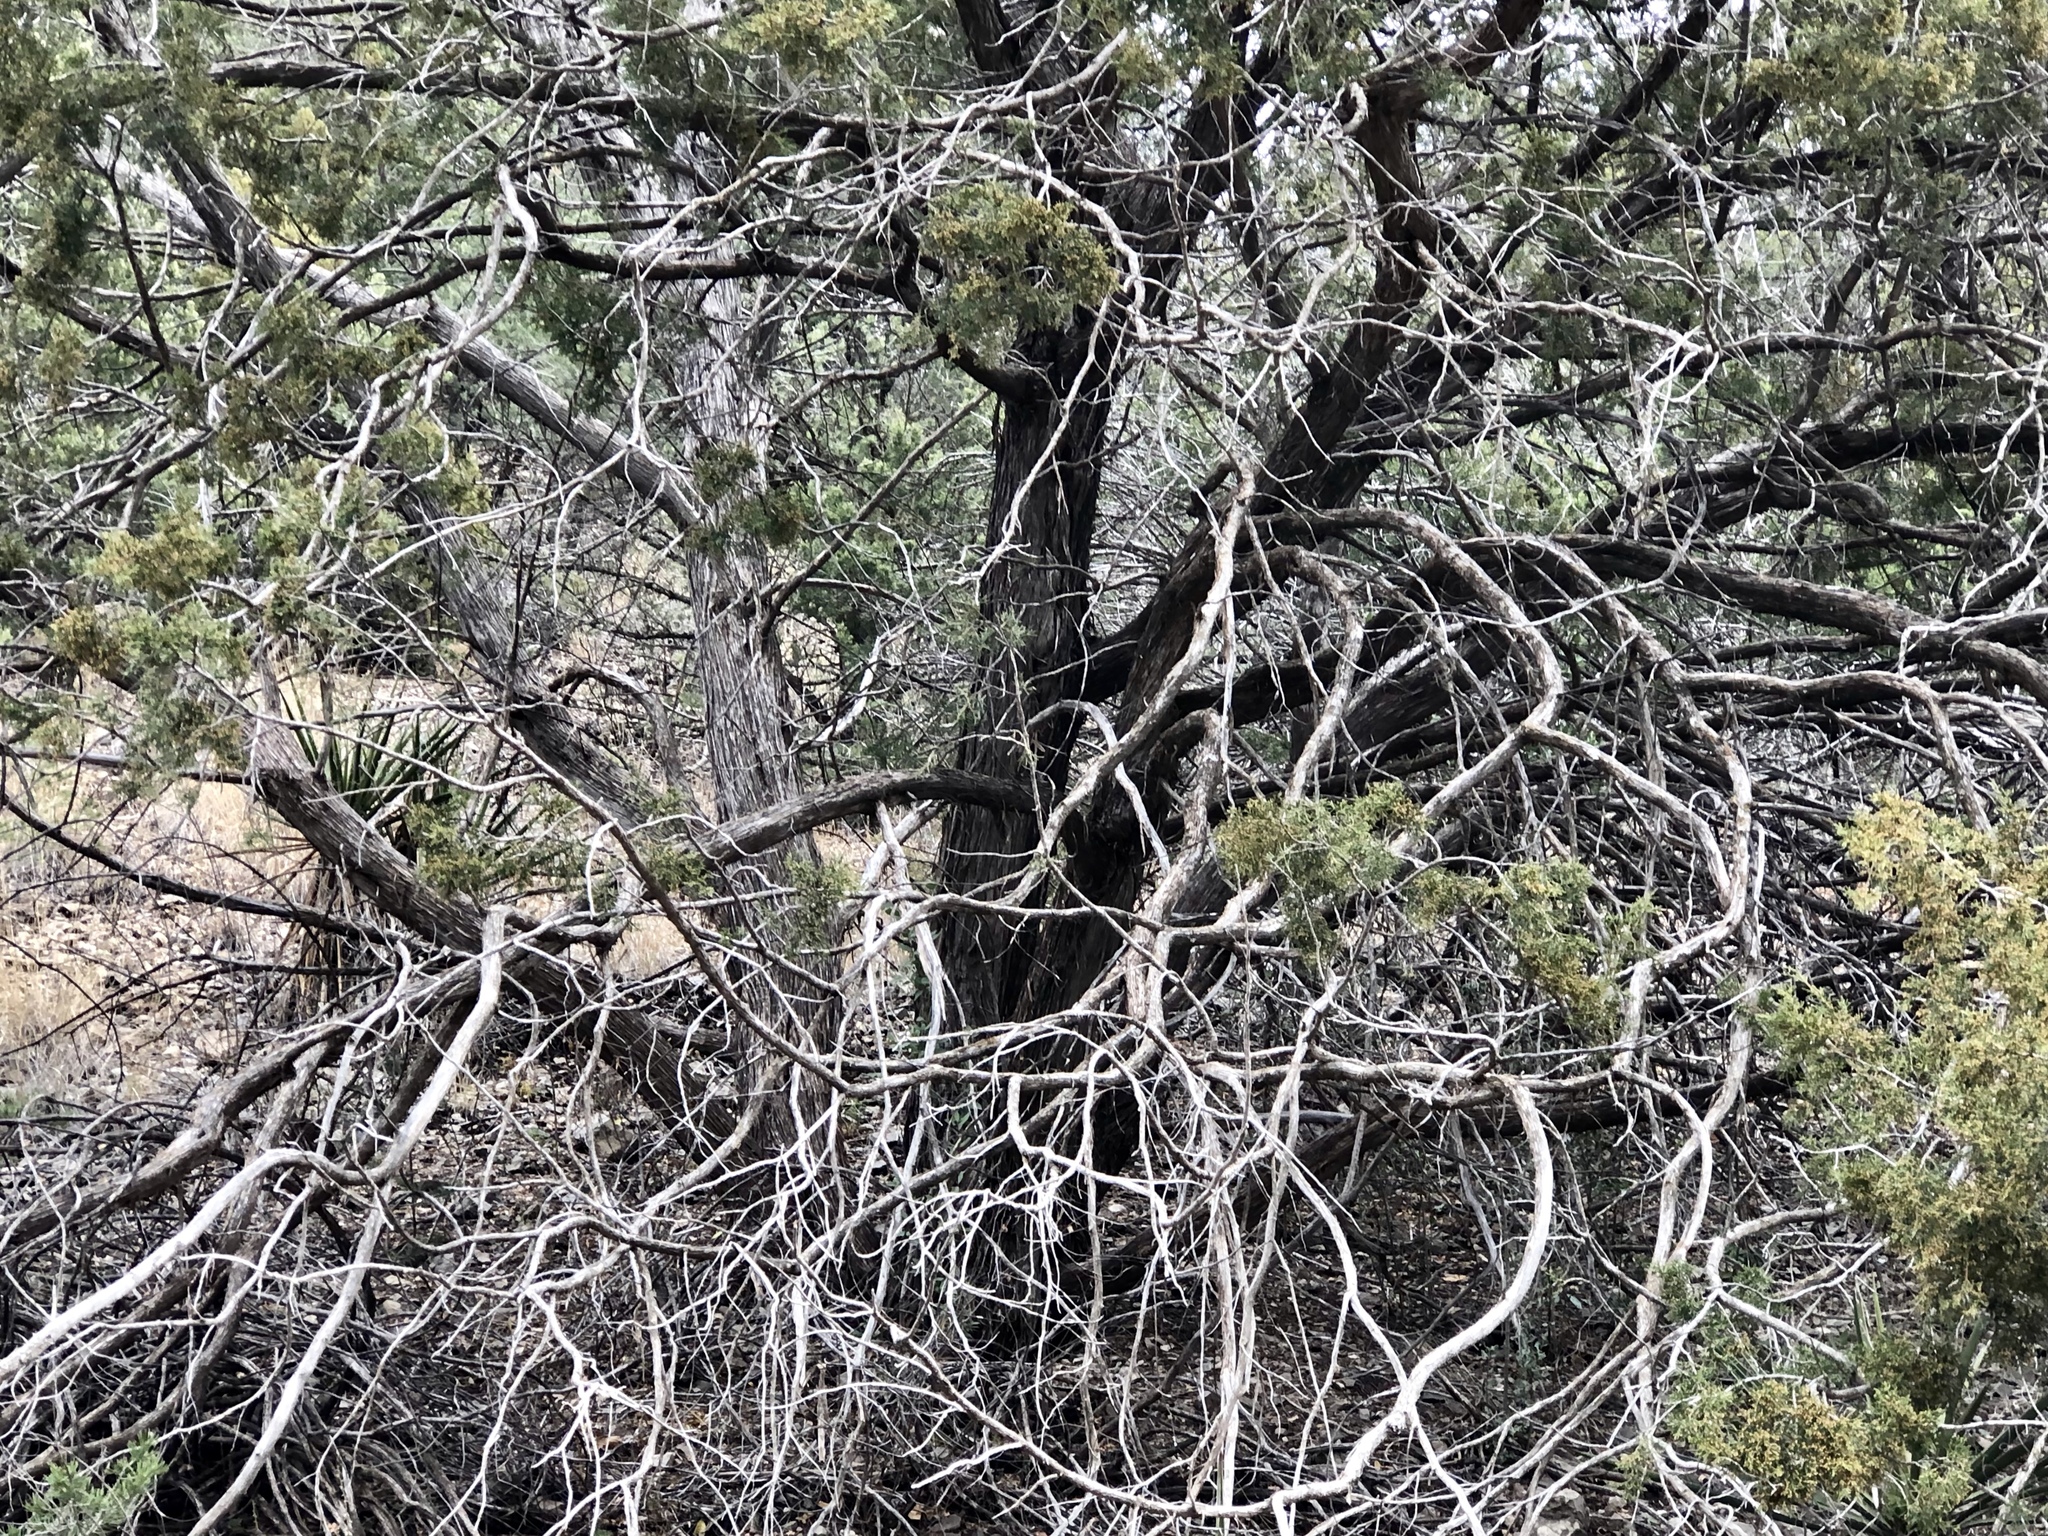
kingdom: Plantae
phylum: Tracheophyta
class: Pinopsida
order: Pinales
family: Cupressaceae
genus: Juniperus
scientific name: Juniperus monosperma
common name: One-seed juniper
